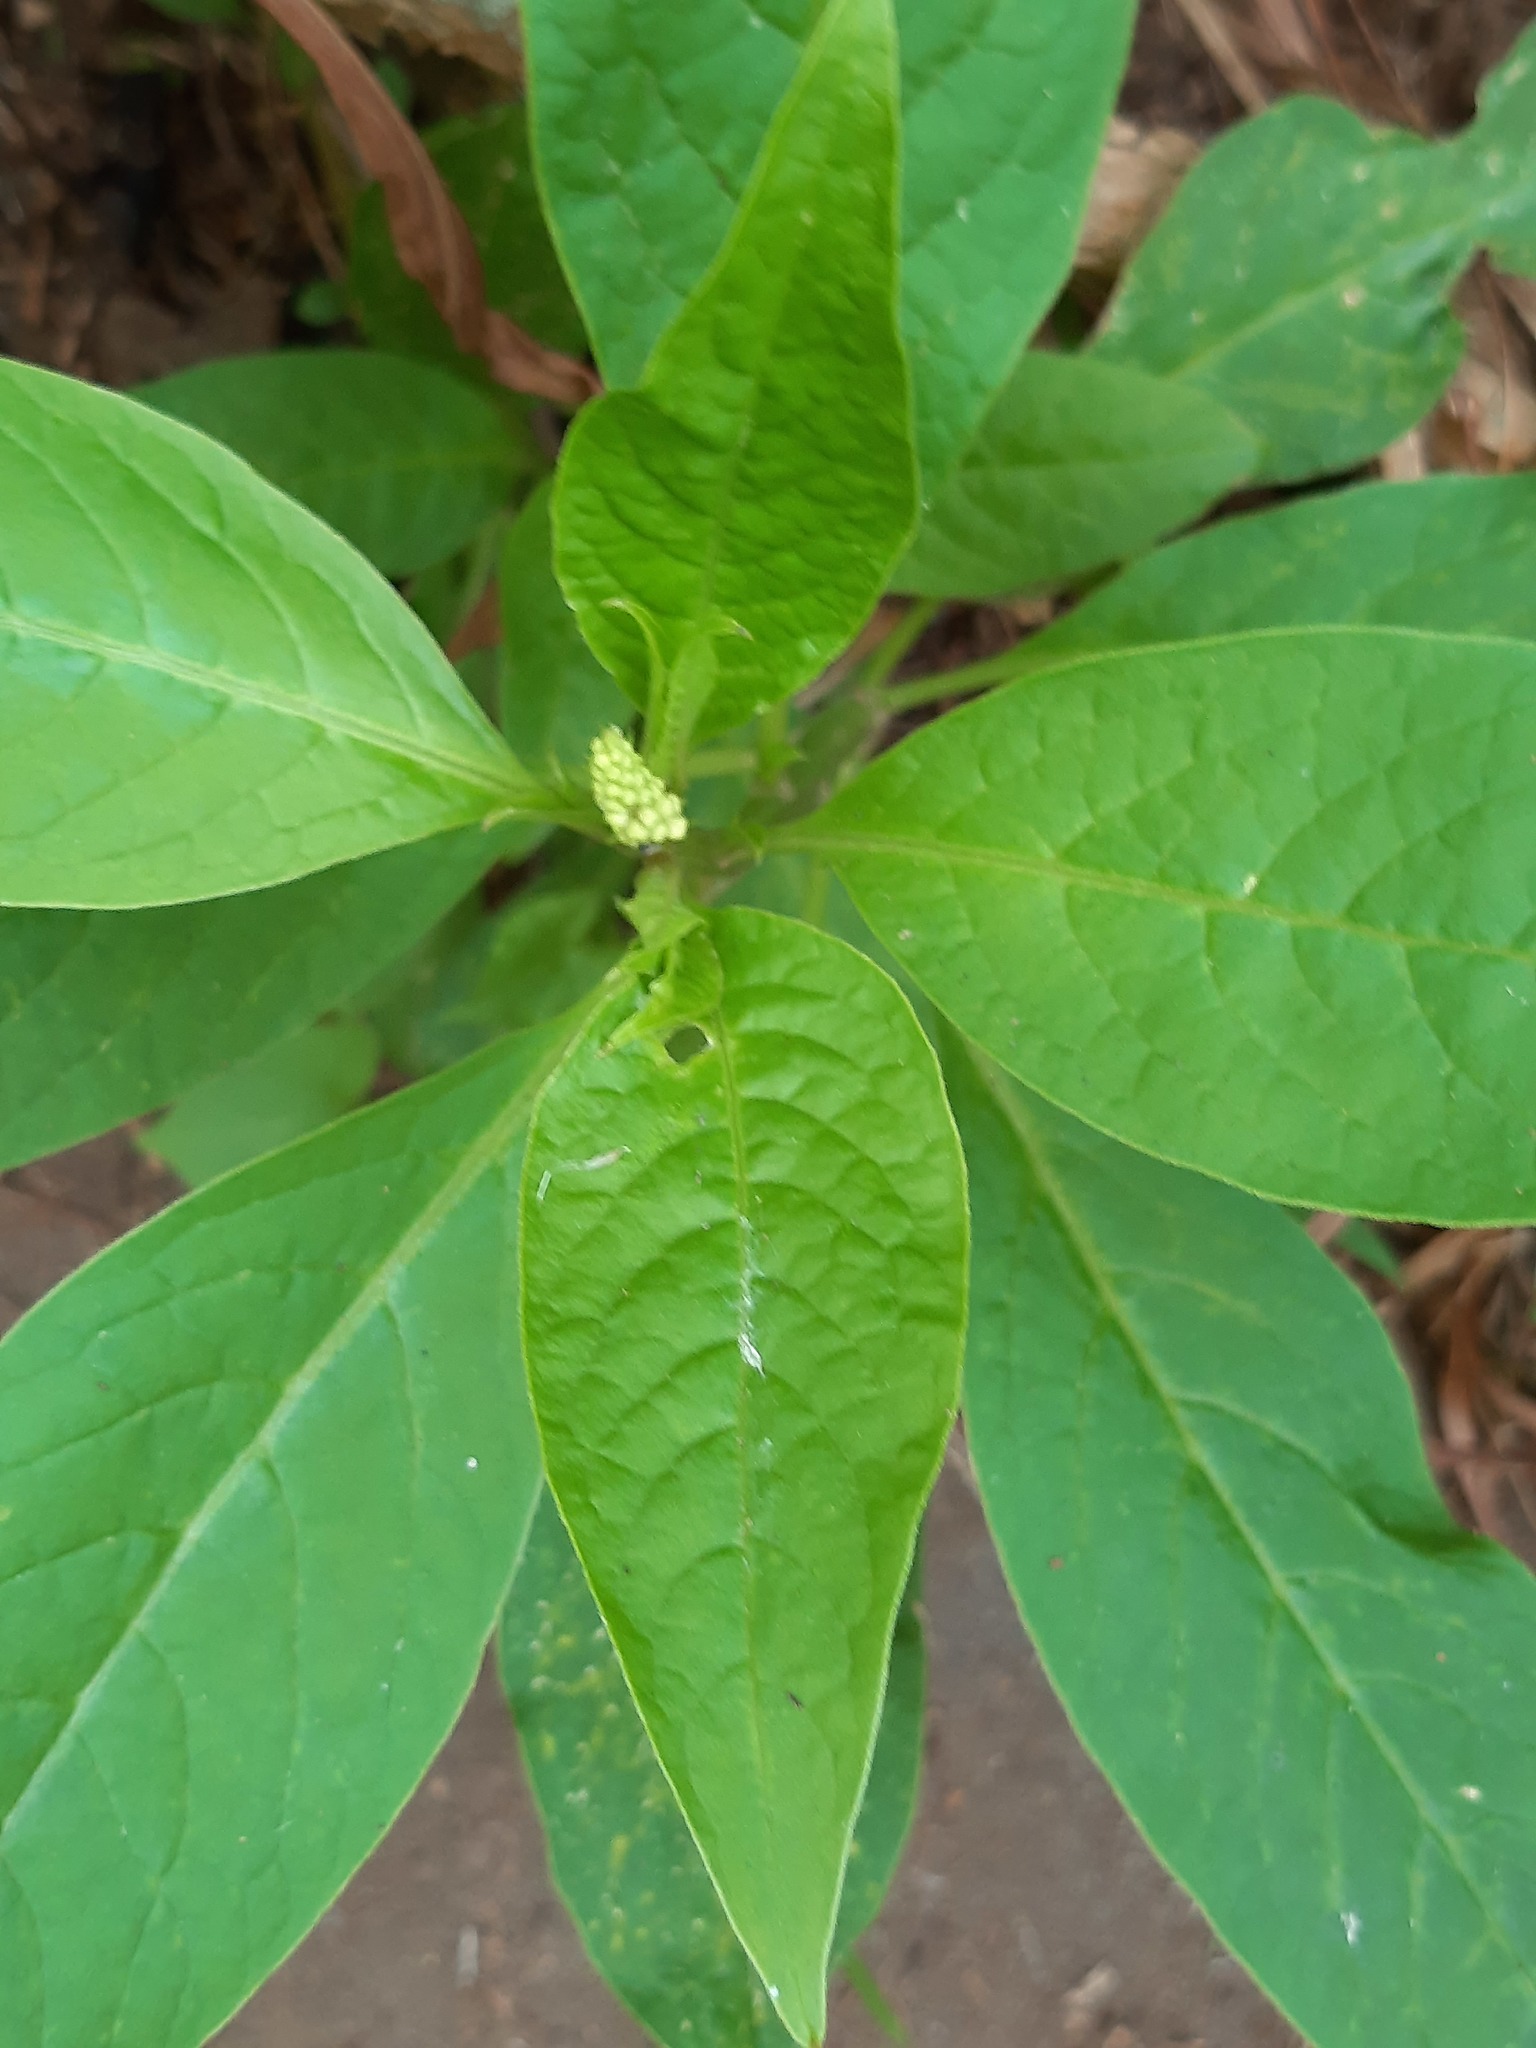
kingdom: Plantae
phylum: Tracheophyta
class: Magnoliopsida
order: Caryophyllales
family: Phytolaccaceae
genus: Phytolacca
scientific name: Phytolacca icosandra
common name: Button pokeweed
